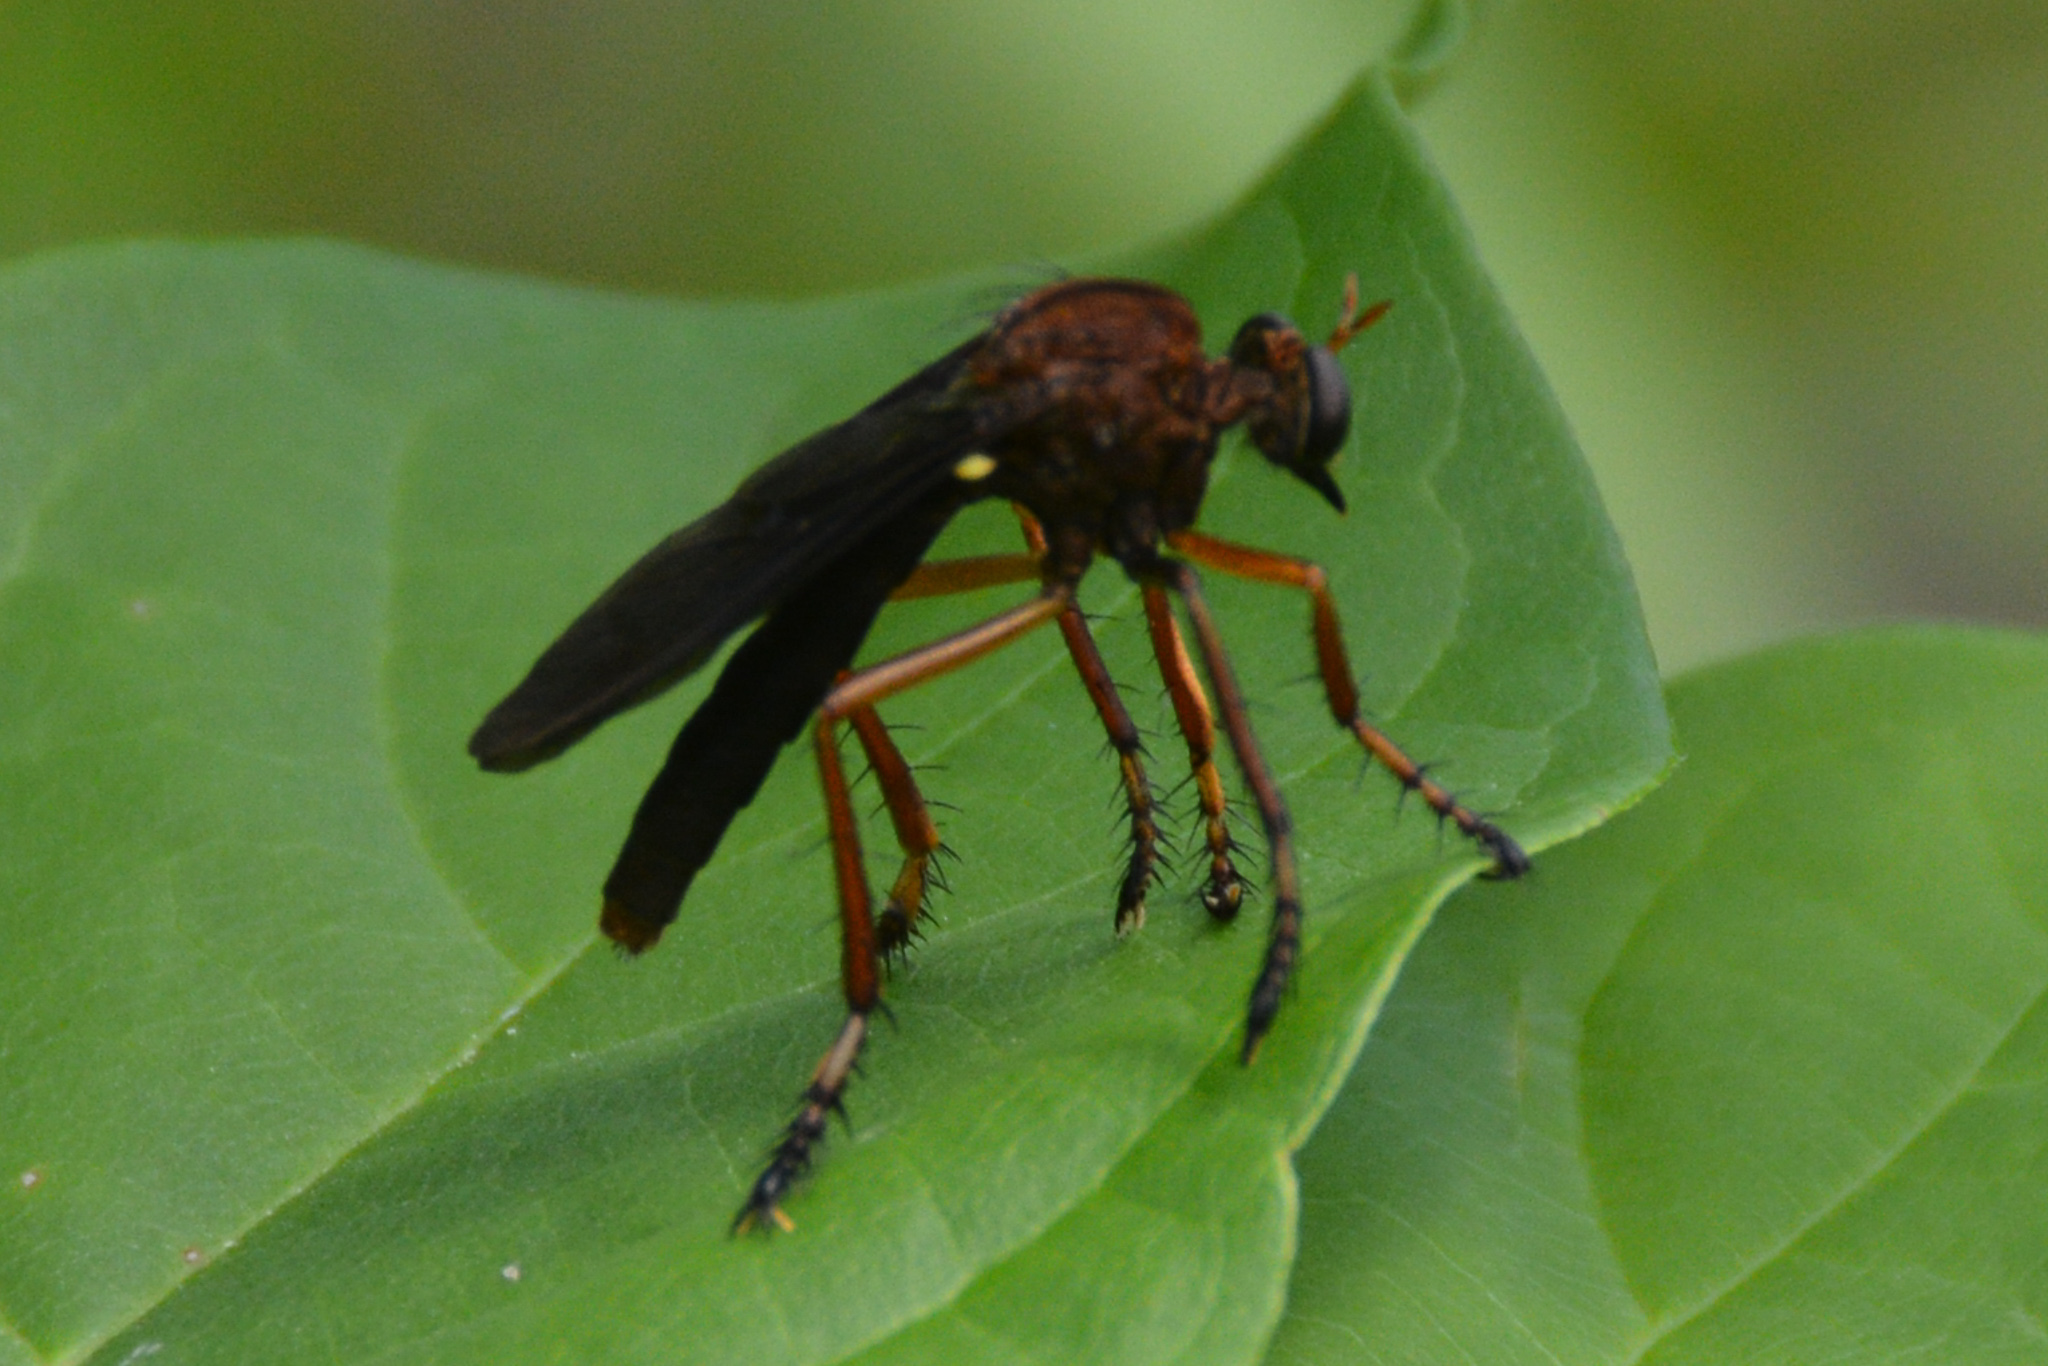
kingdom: Animalia
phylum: Arthropoda
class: Insecta
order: Diptera
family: Asilidae
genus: Diogmites
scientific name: Diogmites platypterus
